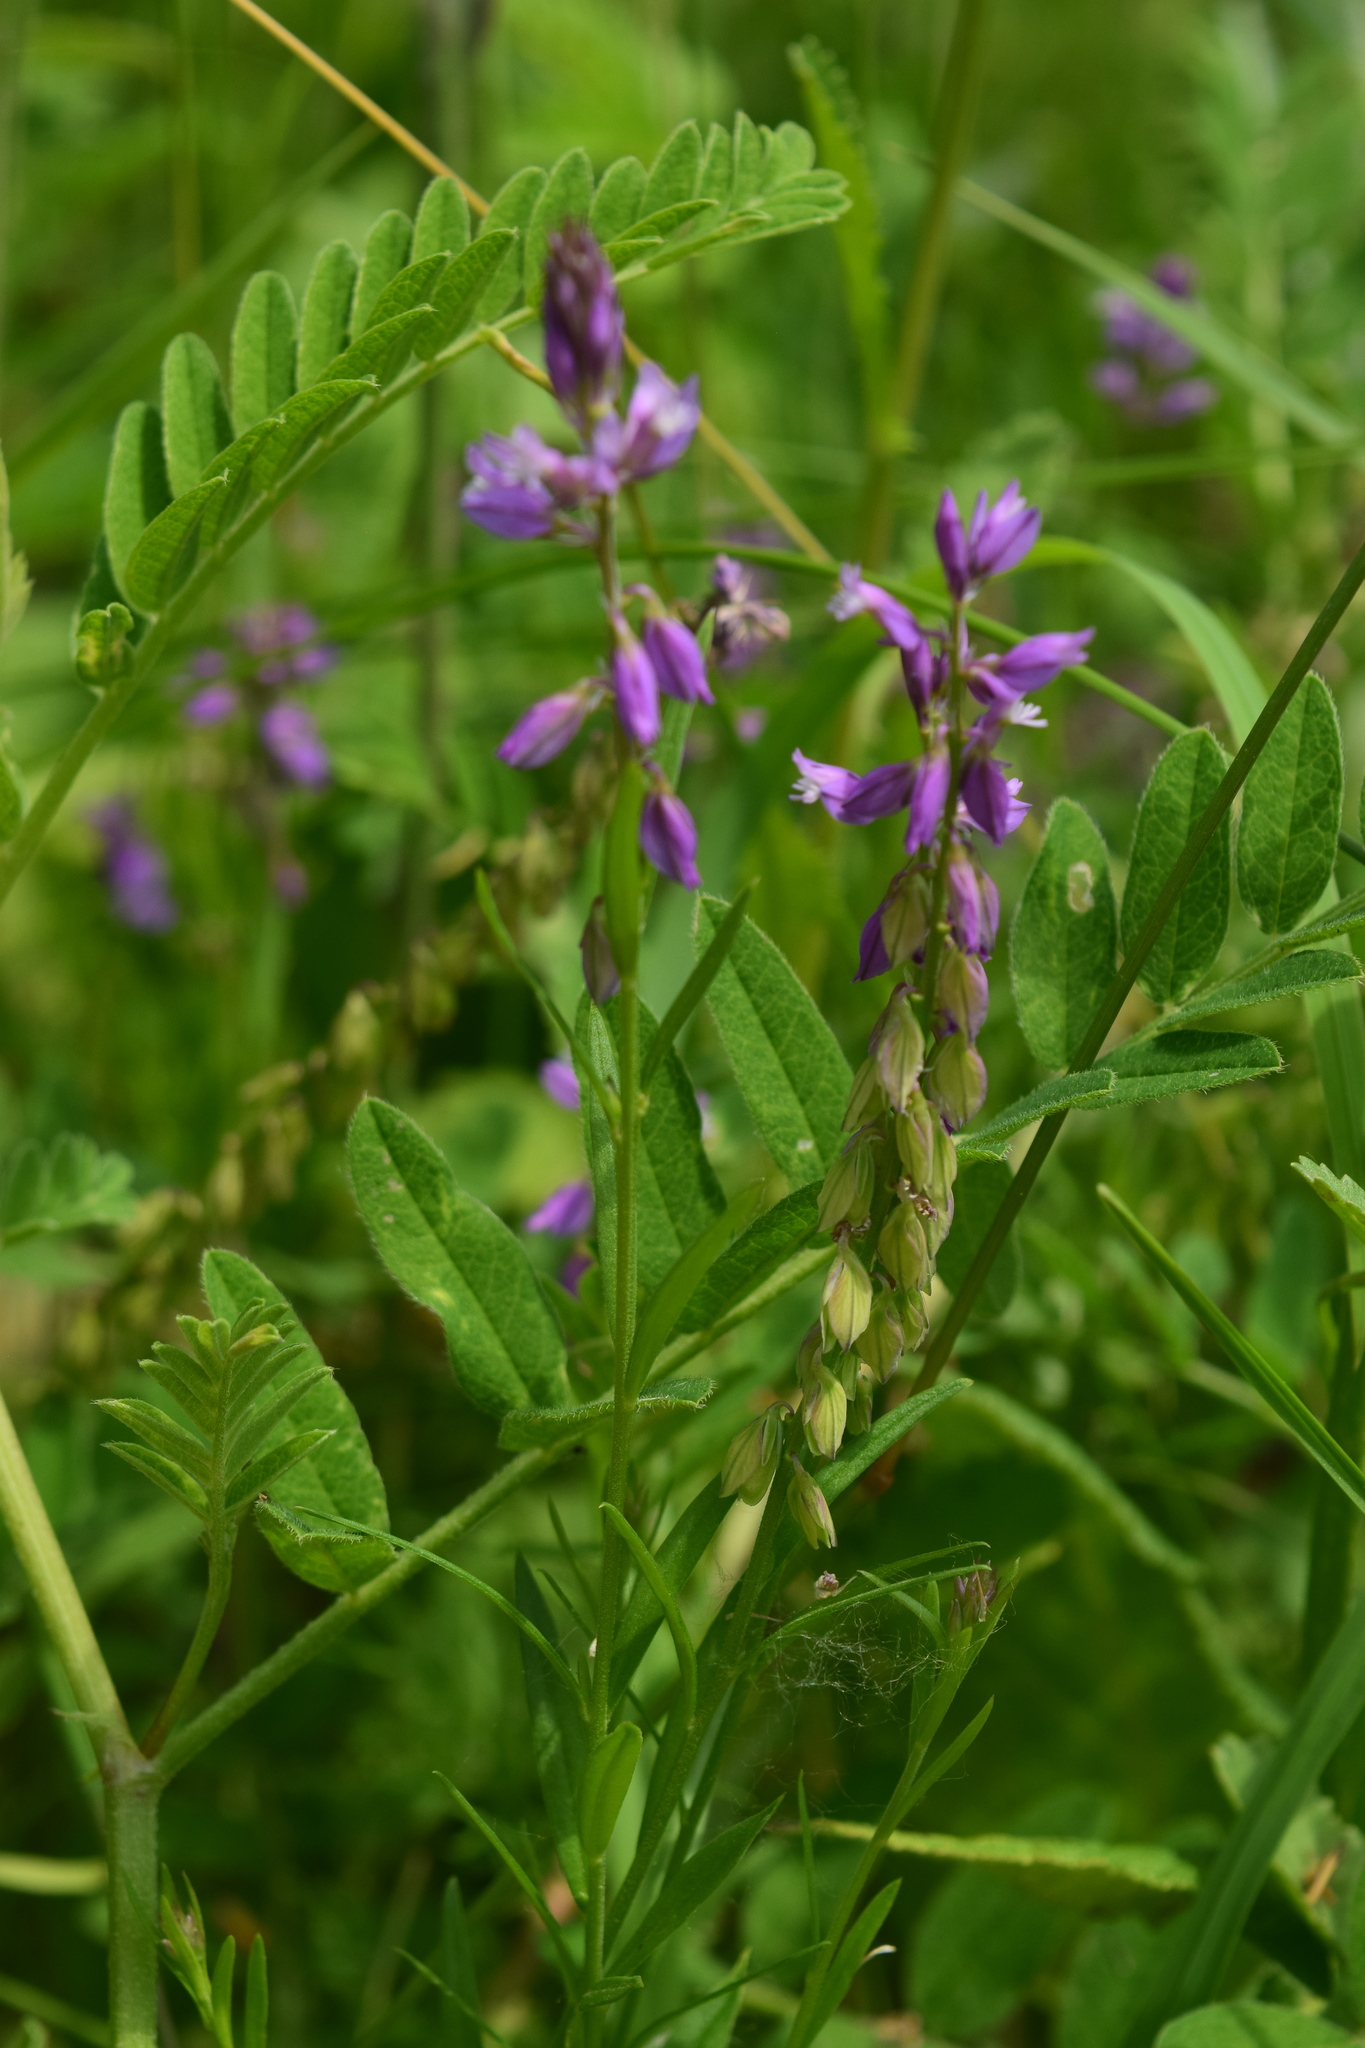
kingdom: Plantae
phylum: Tracheophyta
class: Magnoliopsida
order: Fabales
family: Polygalaceae
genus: Polygala
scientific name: Polygala comosa
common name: Tufted milkwort
